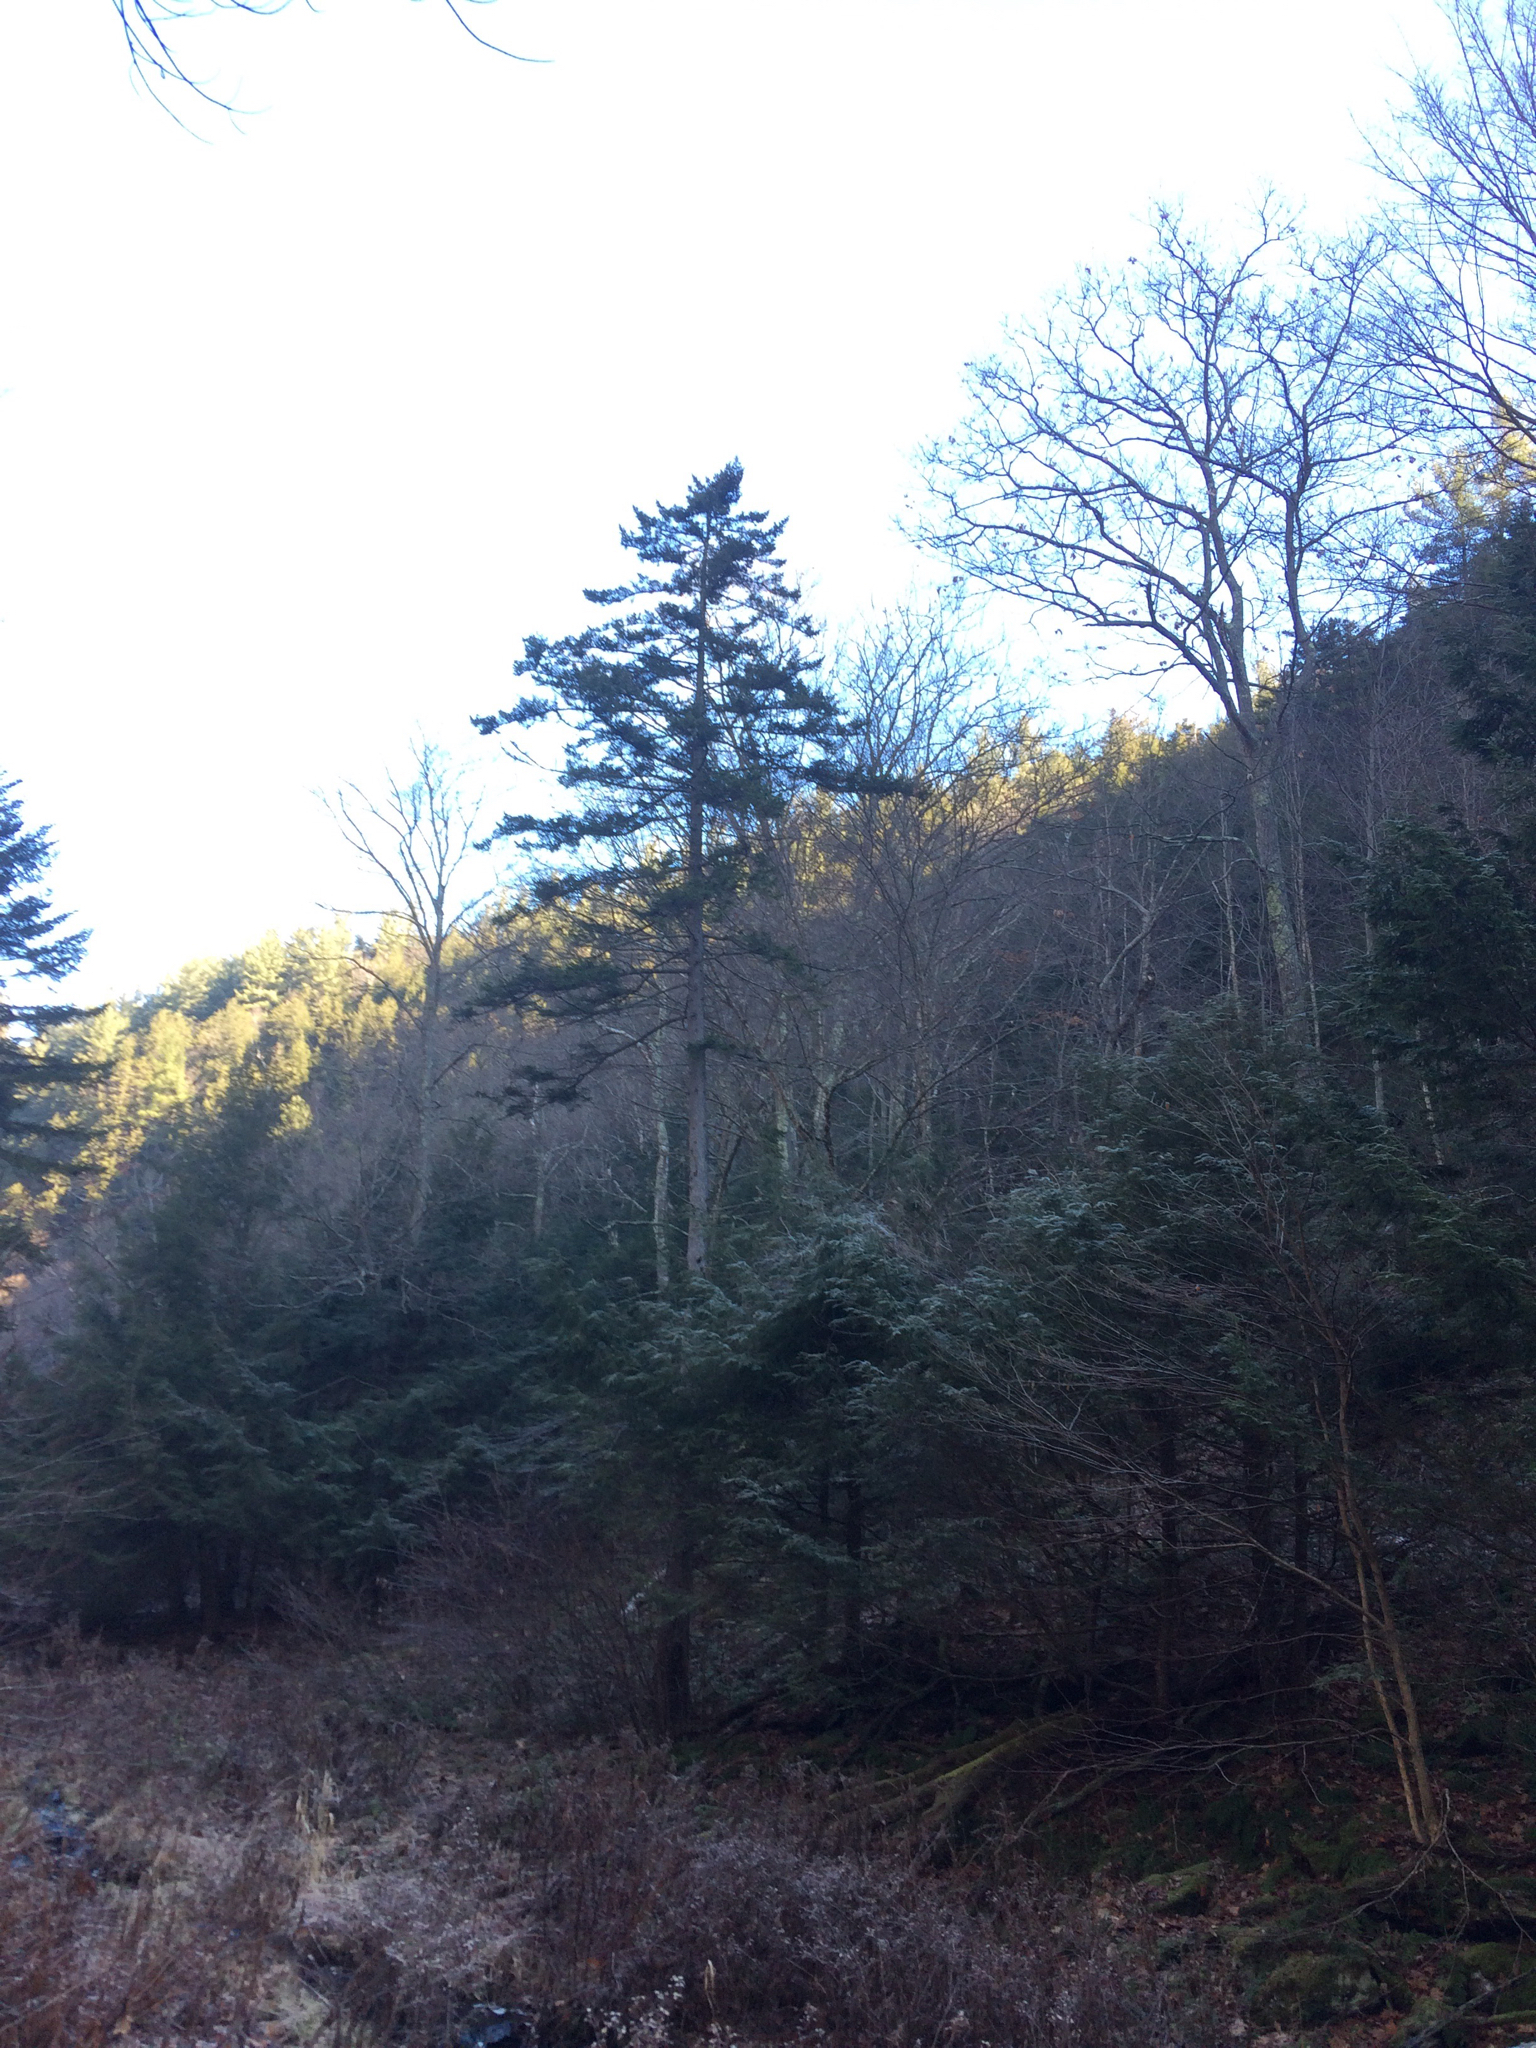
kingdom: Plantae
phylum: Tracheophyta
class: Pinopsida
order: Pinales
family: Pinaceae
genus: Picea
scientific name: Picea rubens
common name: Red spruce
